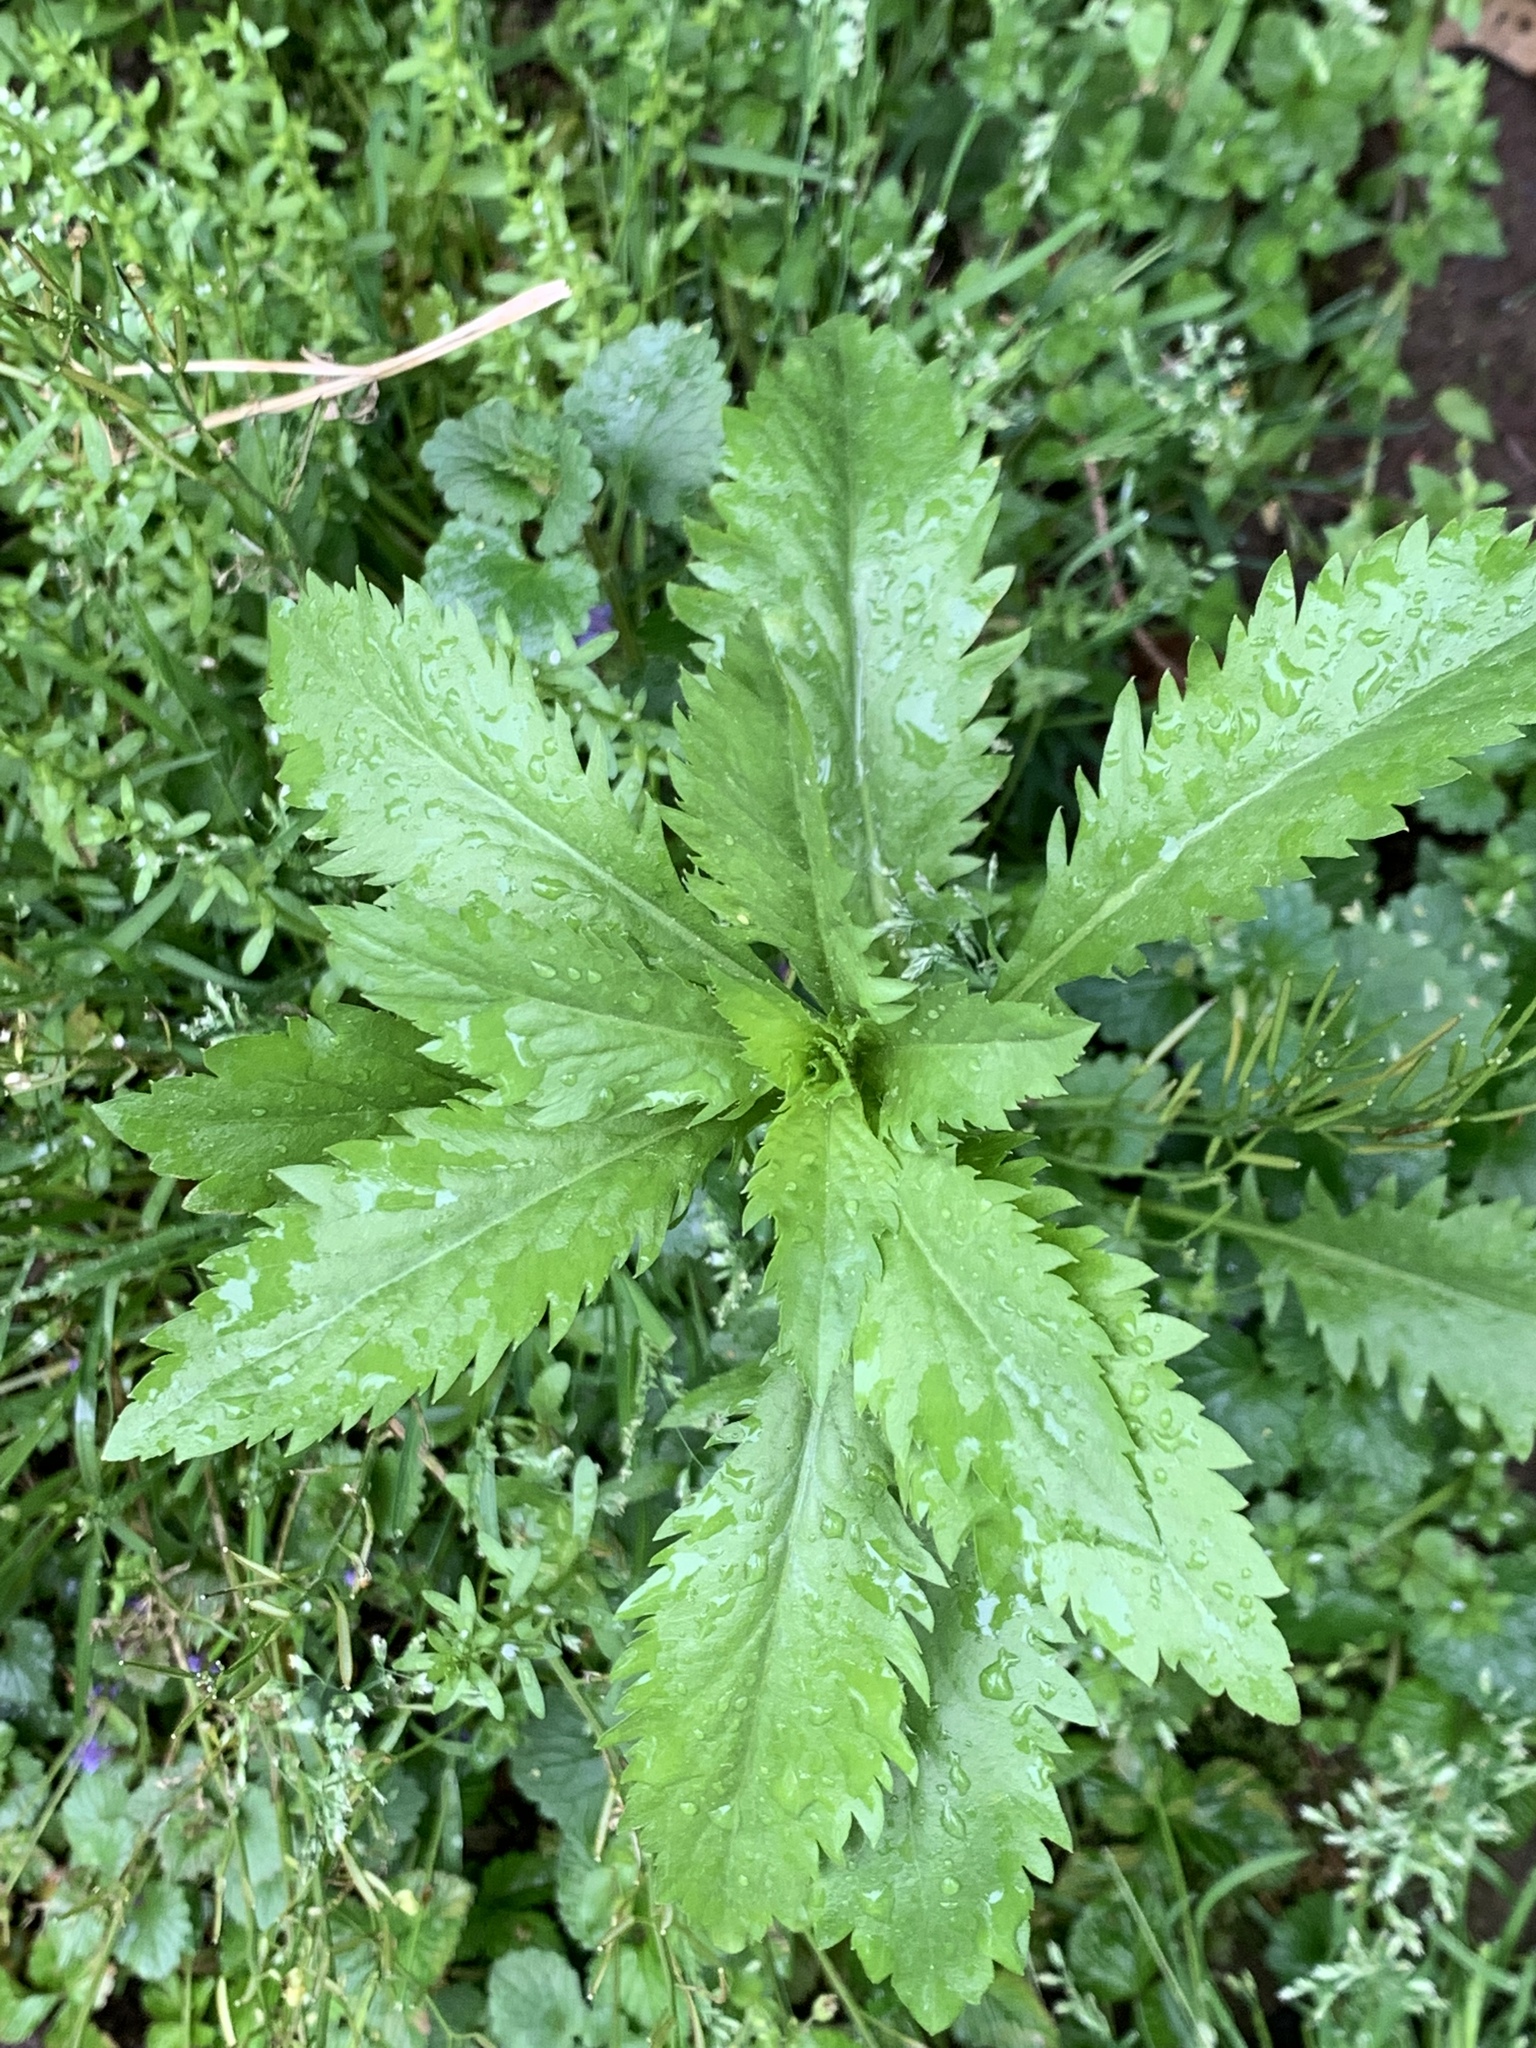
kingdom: Plantae
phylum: Tracheophyta
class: Magnoliopsida
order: Asterales
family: Asteraceae
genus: Erechtites
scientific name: Erechtites hieraciifolius
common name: American burnweed
